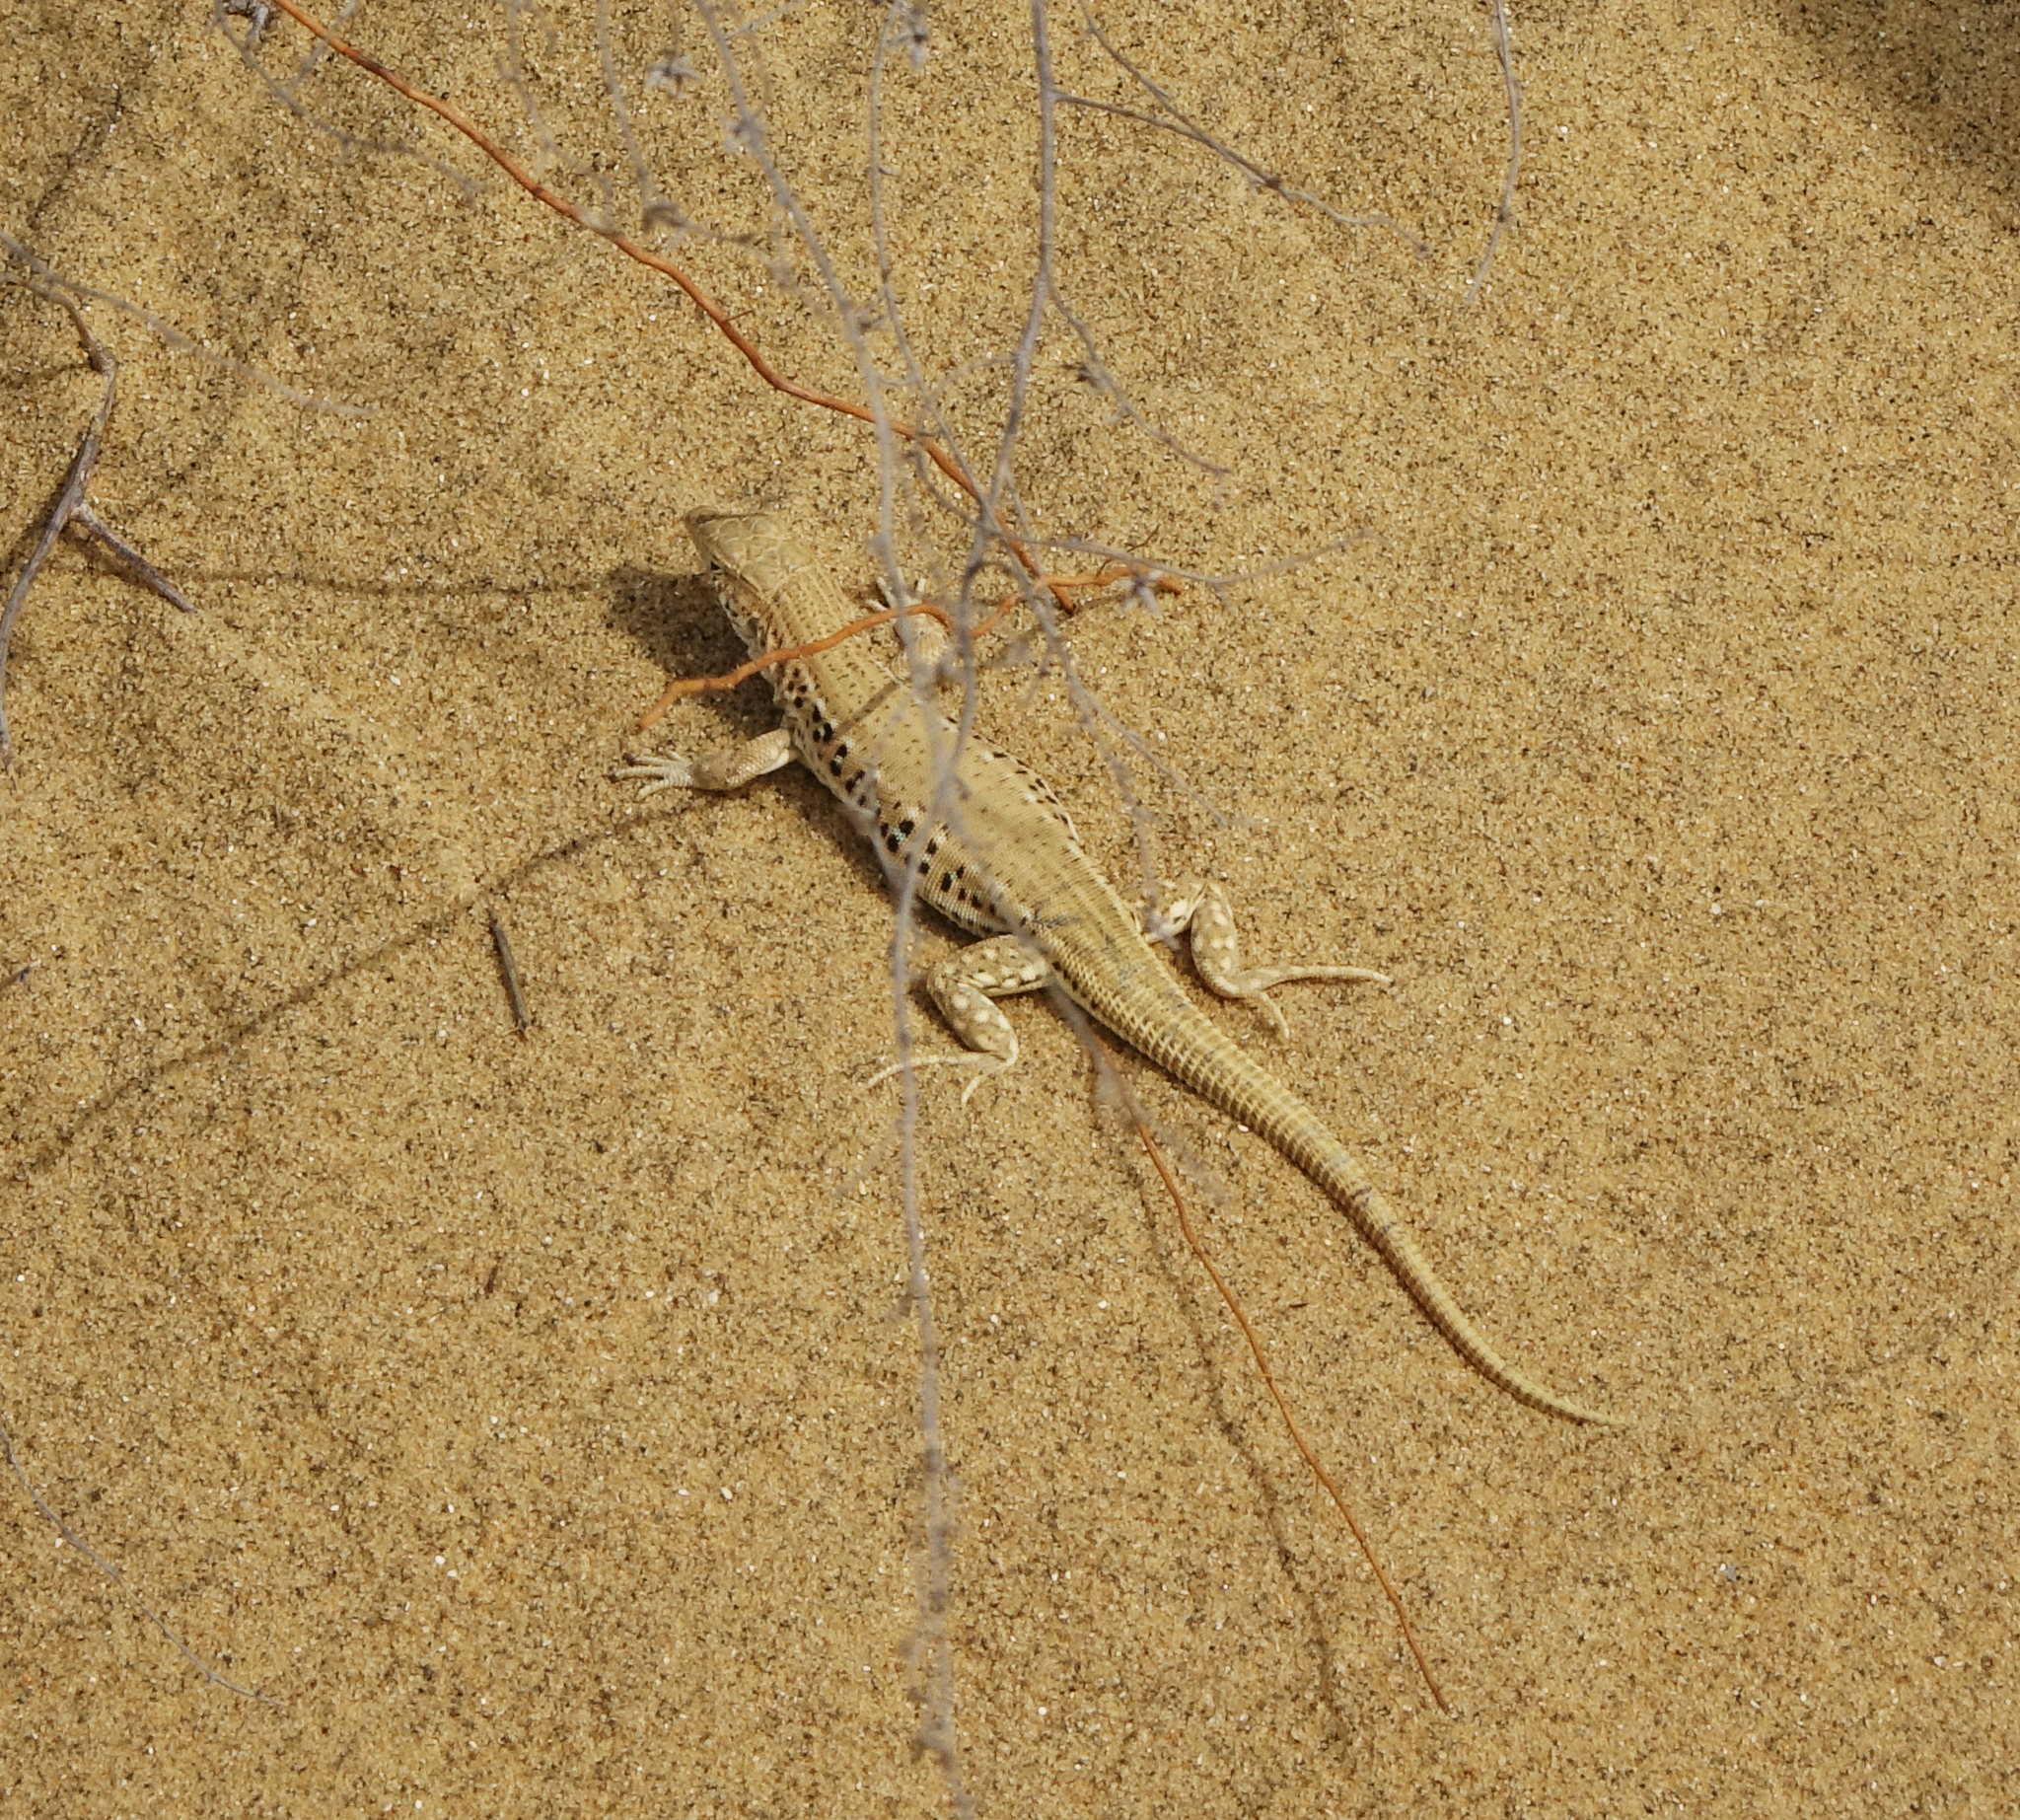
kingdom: Animalia
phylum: Chordata
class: Squamata
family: Lacertidae
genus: Eremias
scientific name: Eremias velox
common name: Central asian racerunner
